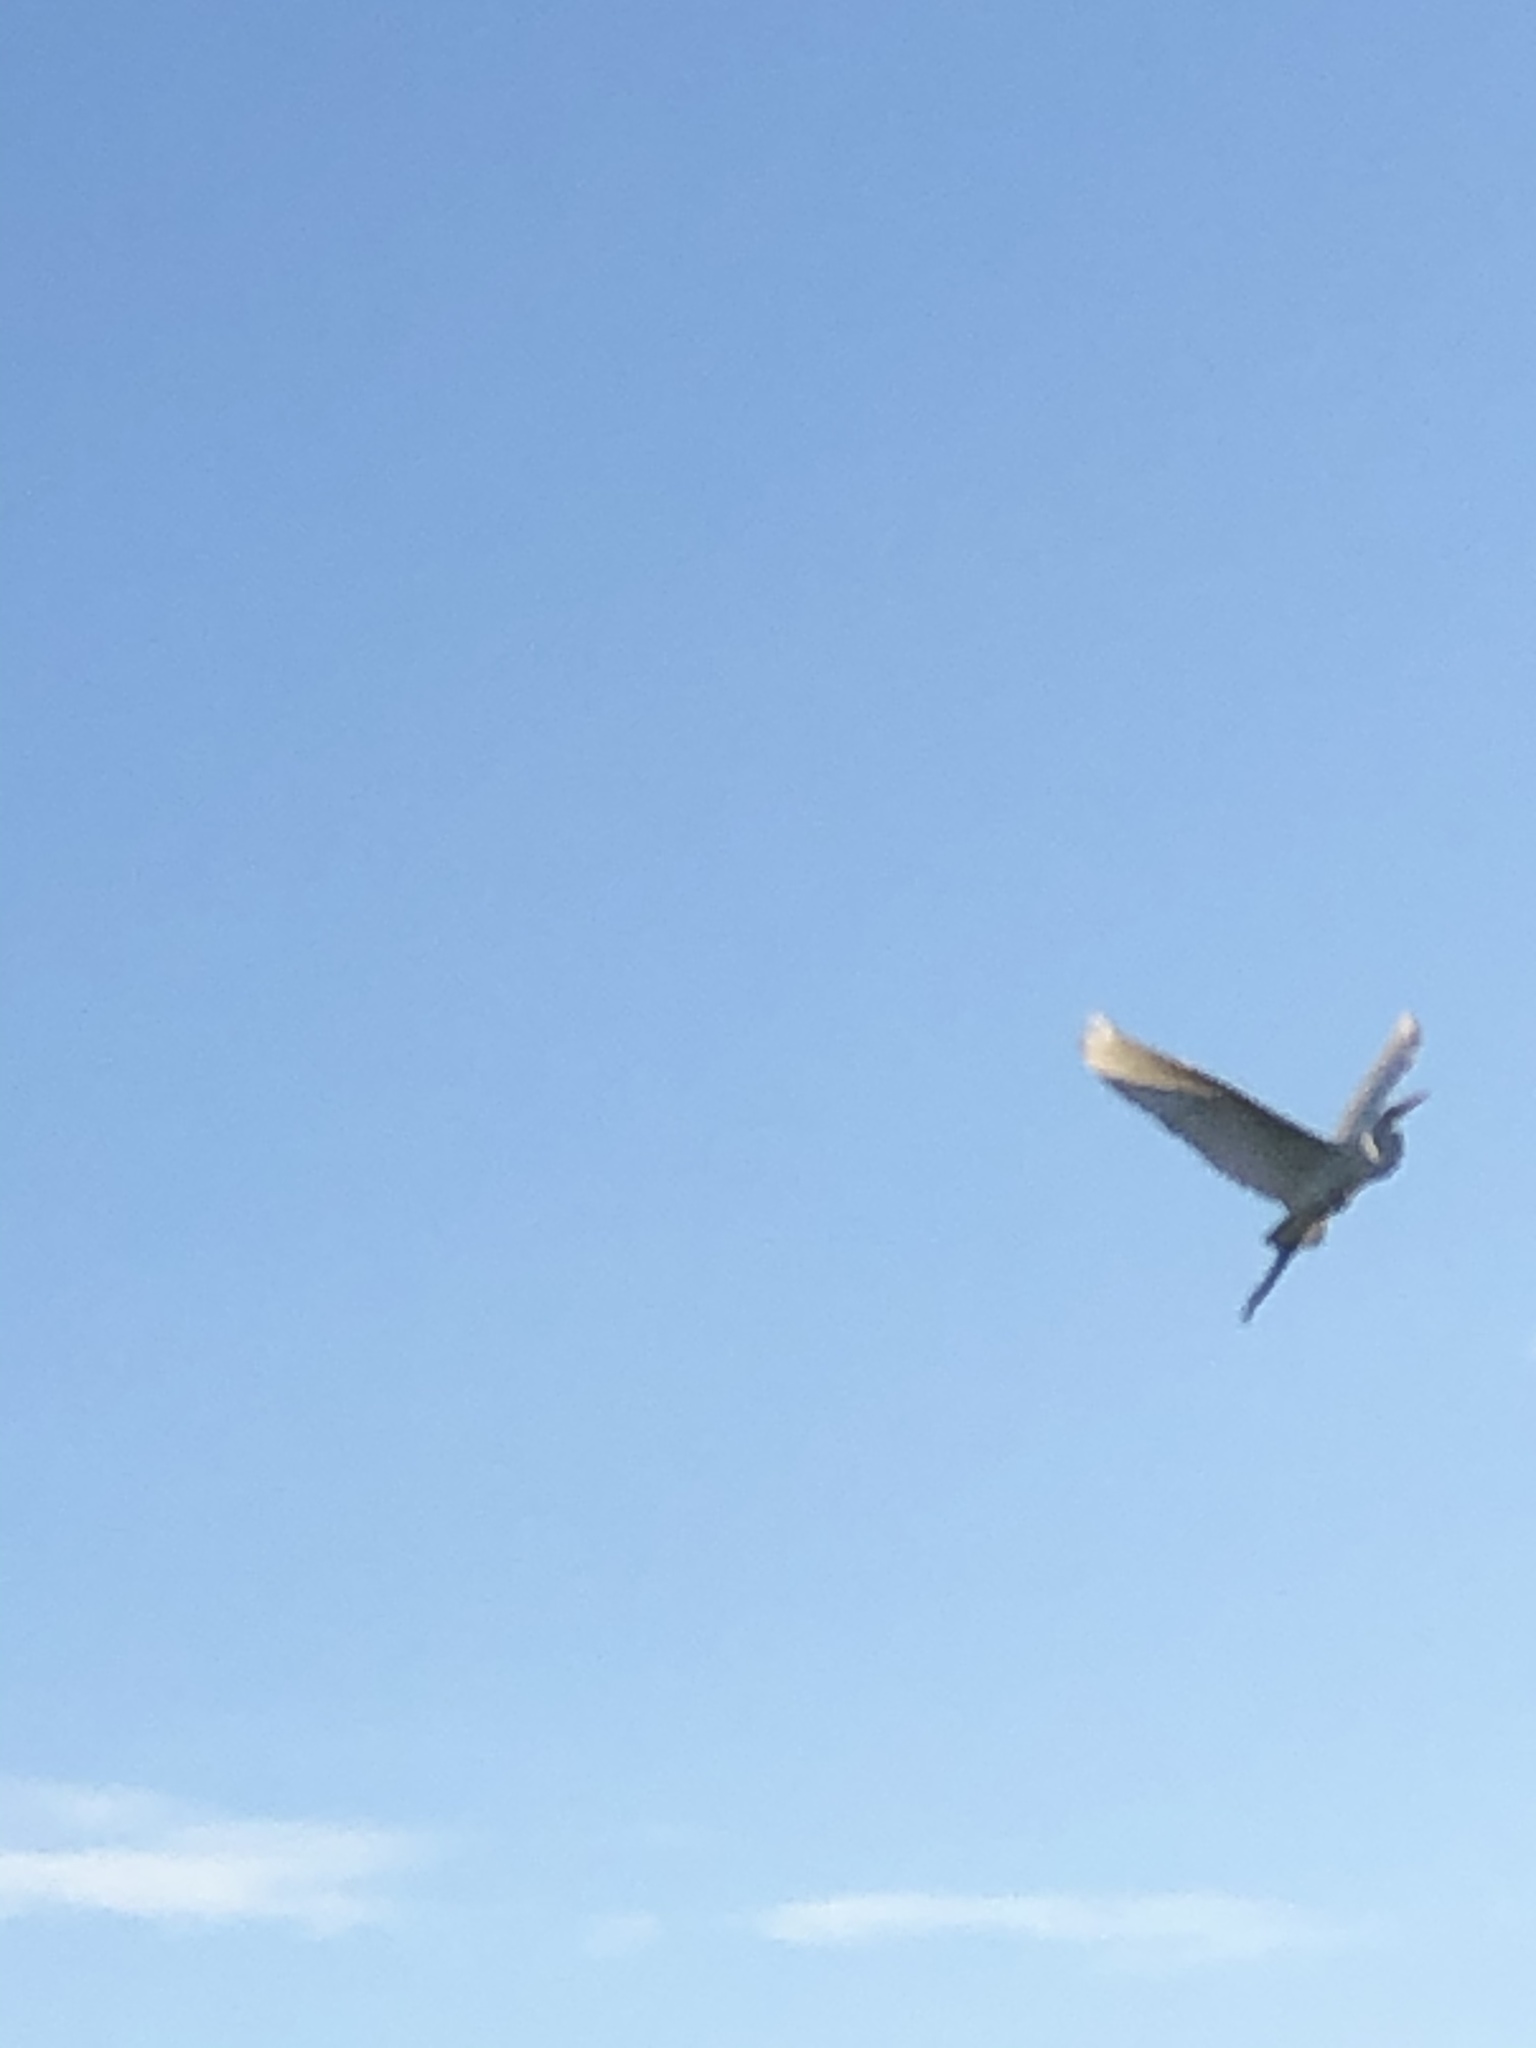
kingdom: Animalia
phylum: Chordata
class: Aves
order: Pelecaniformes
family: Ardeidae
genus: Ardea
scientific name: Ardea alba
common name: Great egret
